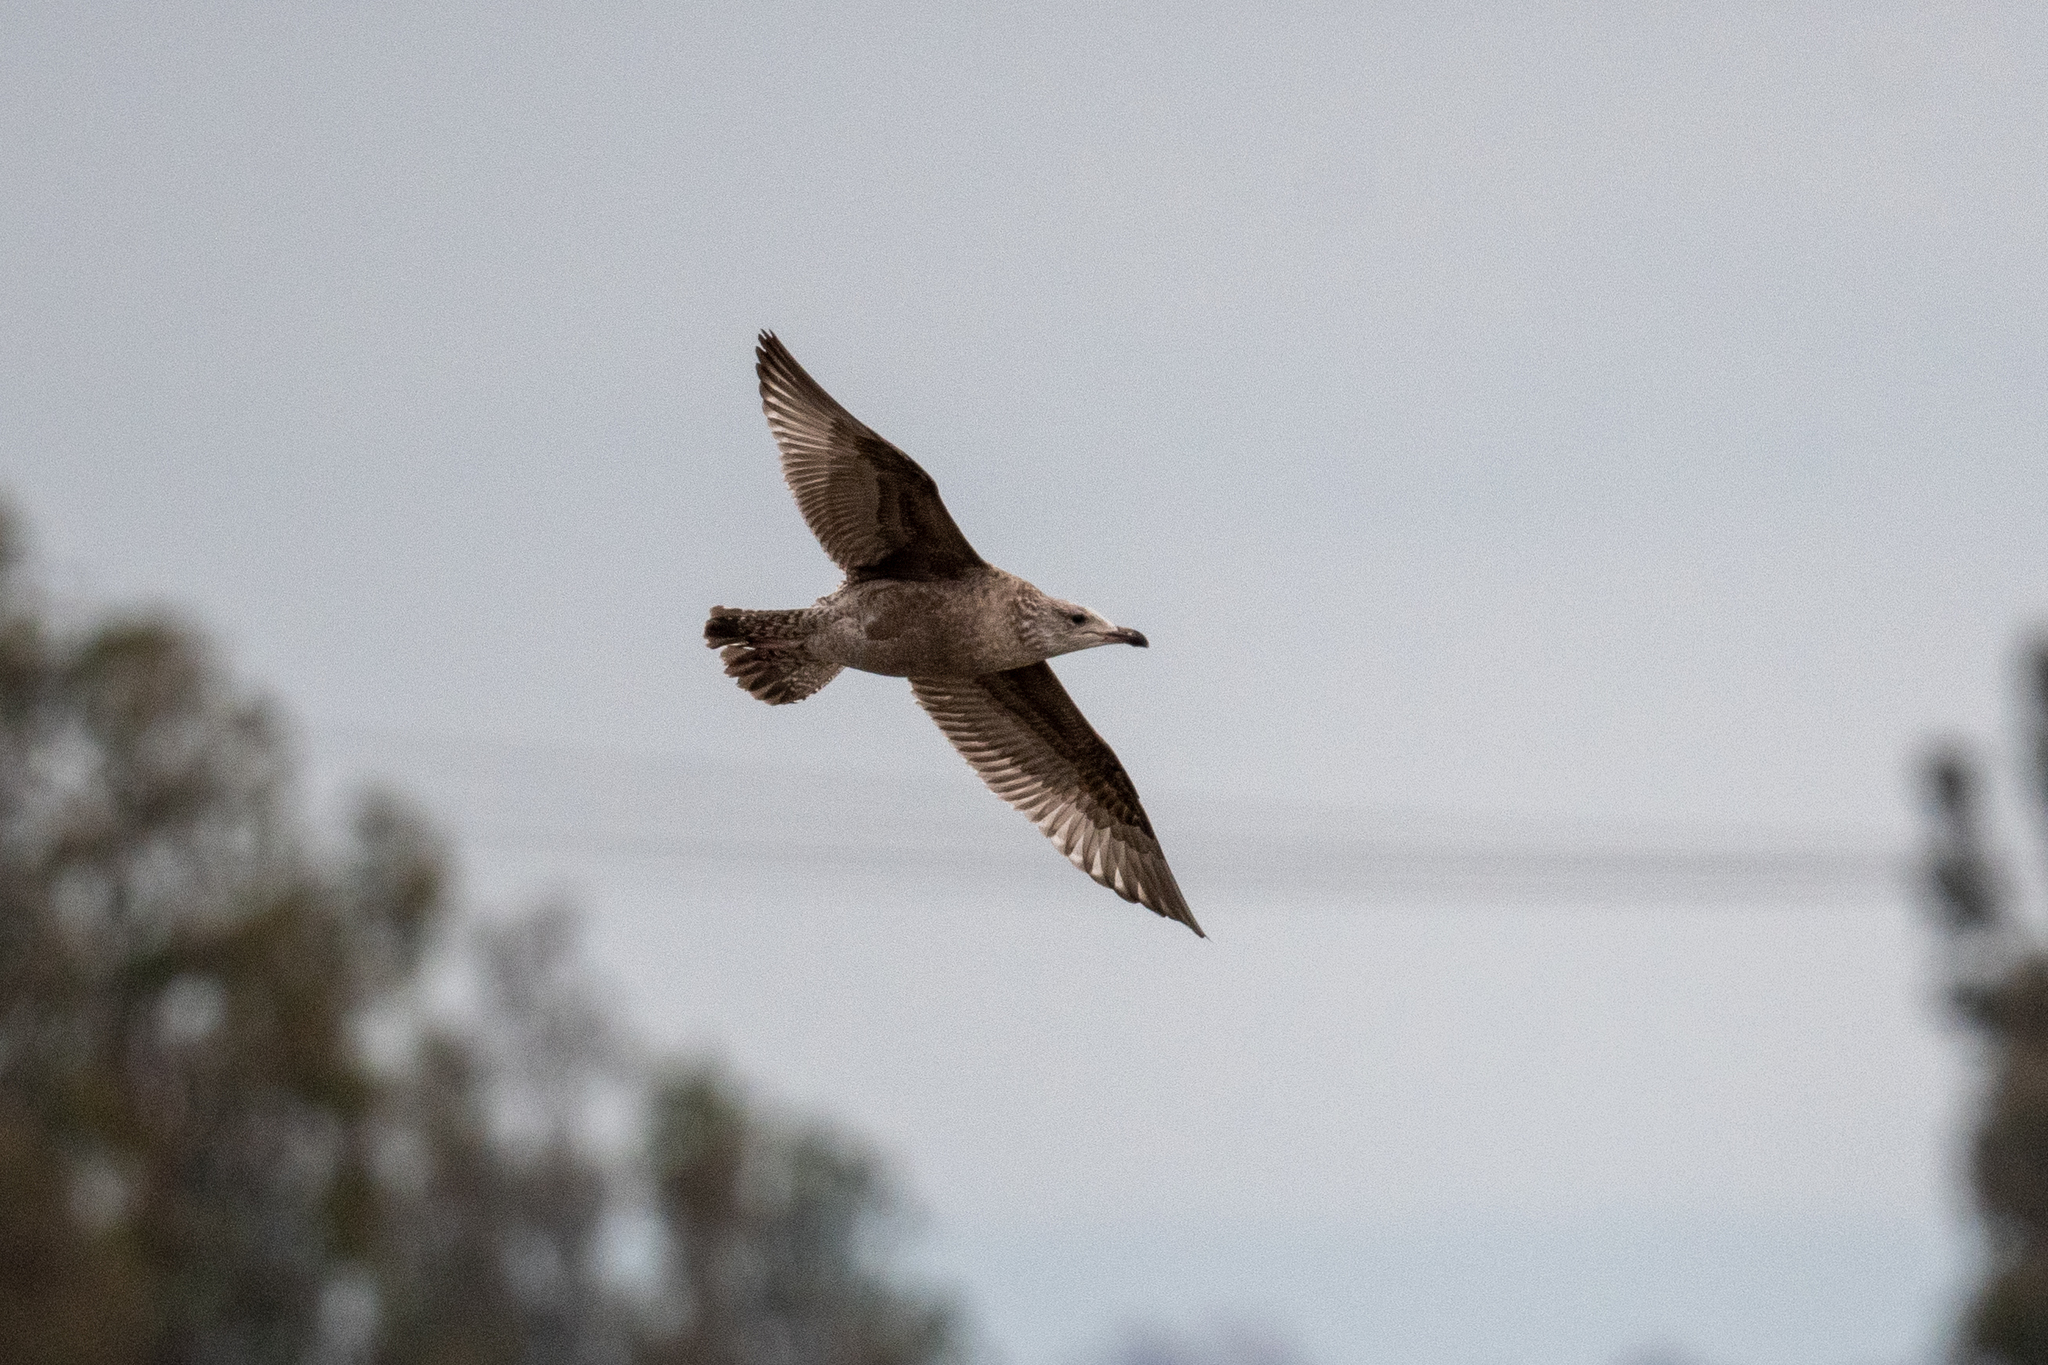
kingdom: Animalia
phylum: Chordata
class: Aves
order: Charadriiformes
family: Laridae
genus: Larus
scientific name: Larus argentatus
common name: Herring gull
